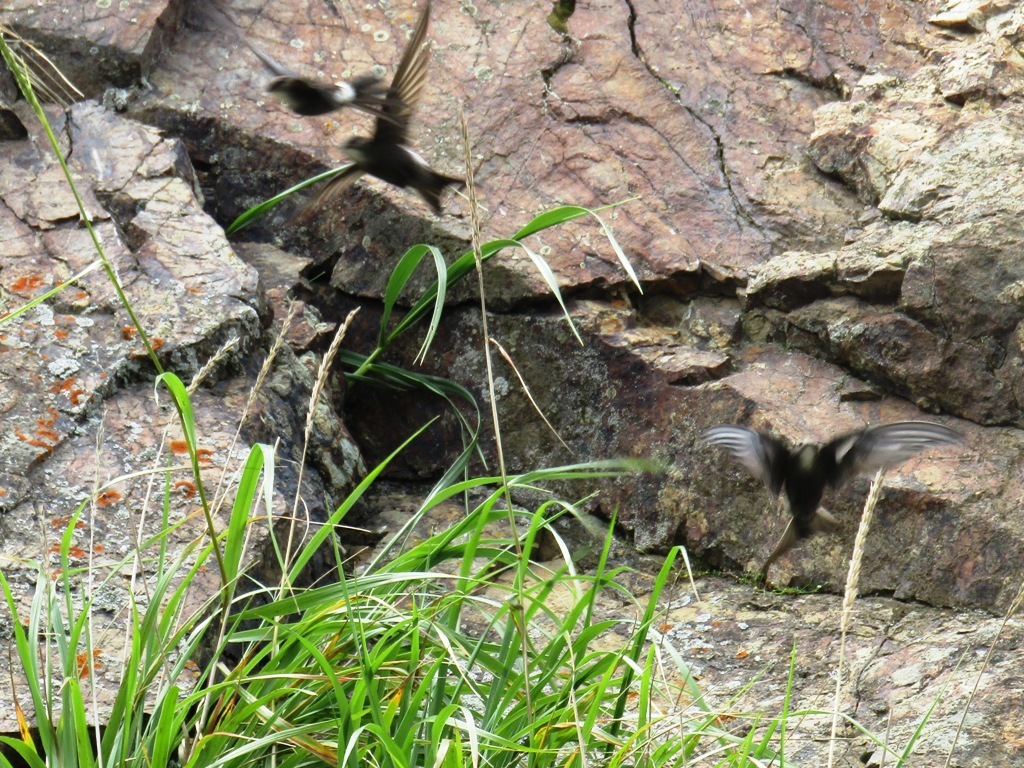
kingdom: Animalia
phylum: Chordata
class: Aves
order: Apodiformes
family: Apodidae
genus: Apus
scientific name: Apus pacificus
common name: Pacific swift
